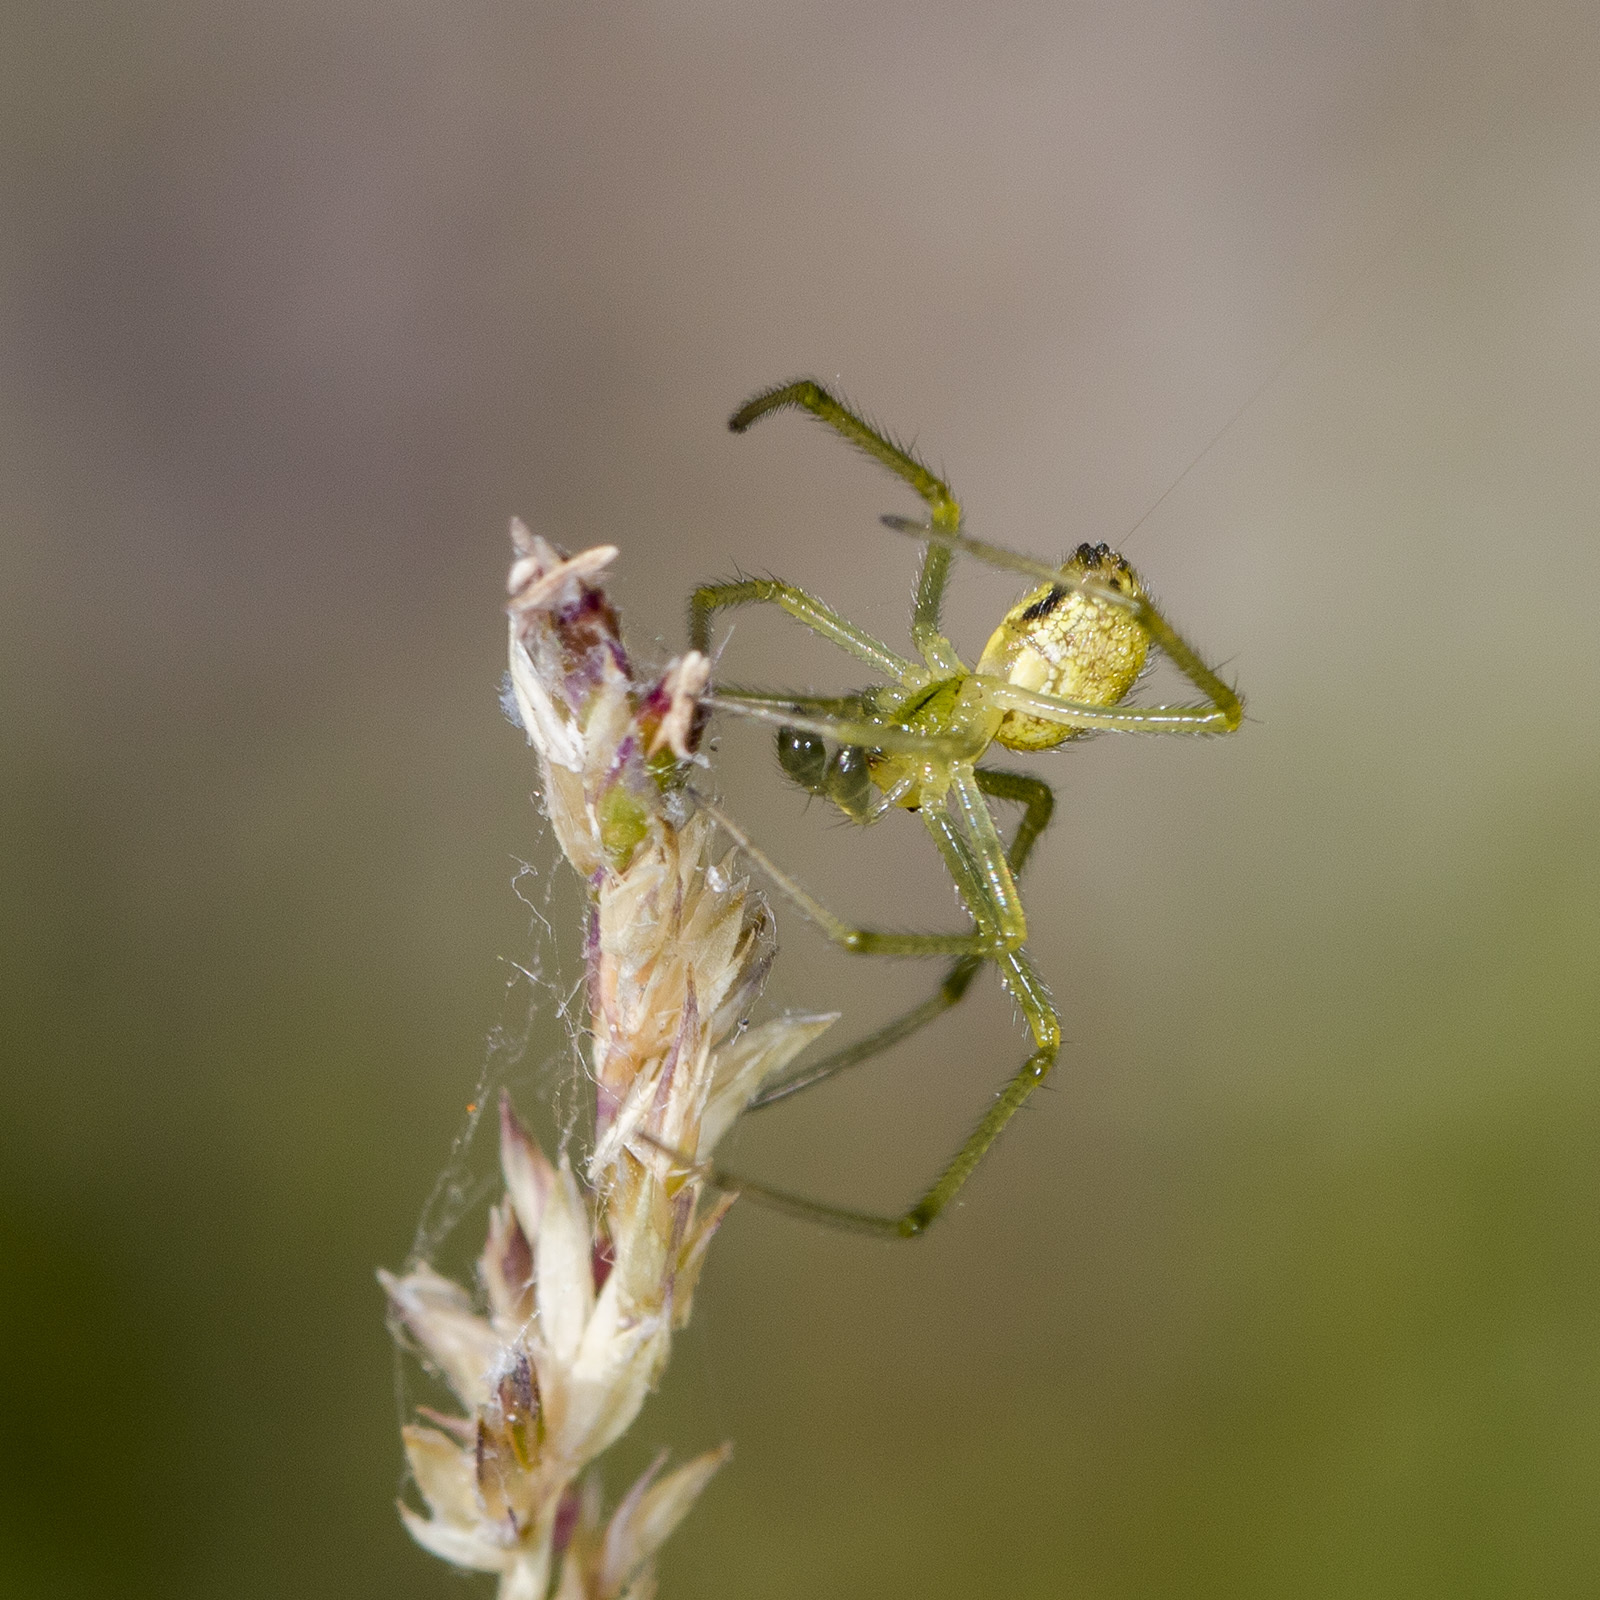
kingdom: Animalia
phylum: Arthropoda
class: Arachnida
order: Araneae
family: Theridiidae
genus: Enoplognatha
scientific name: Enoplognatha latimana
